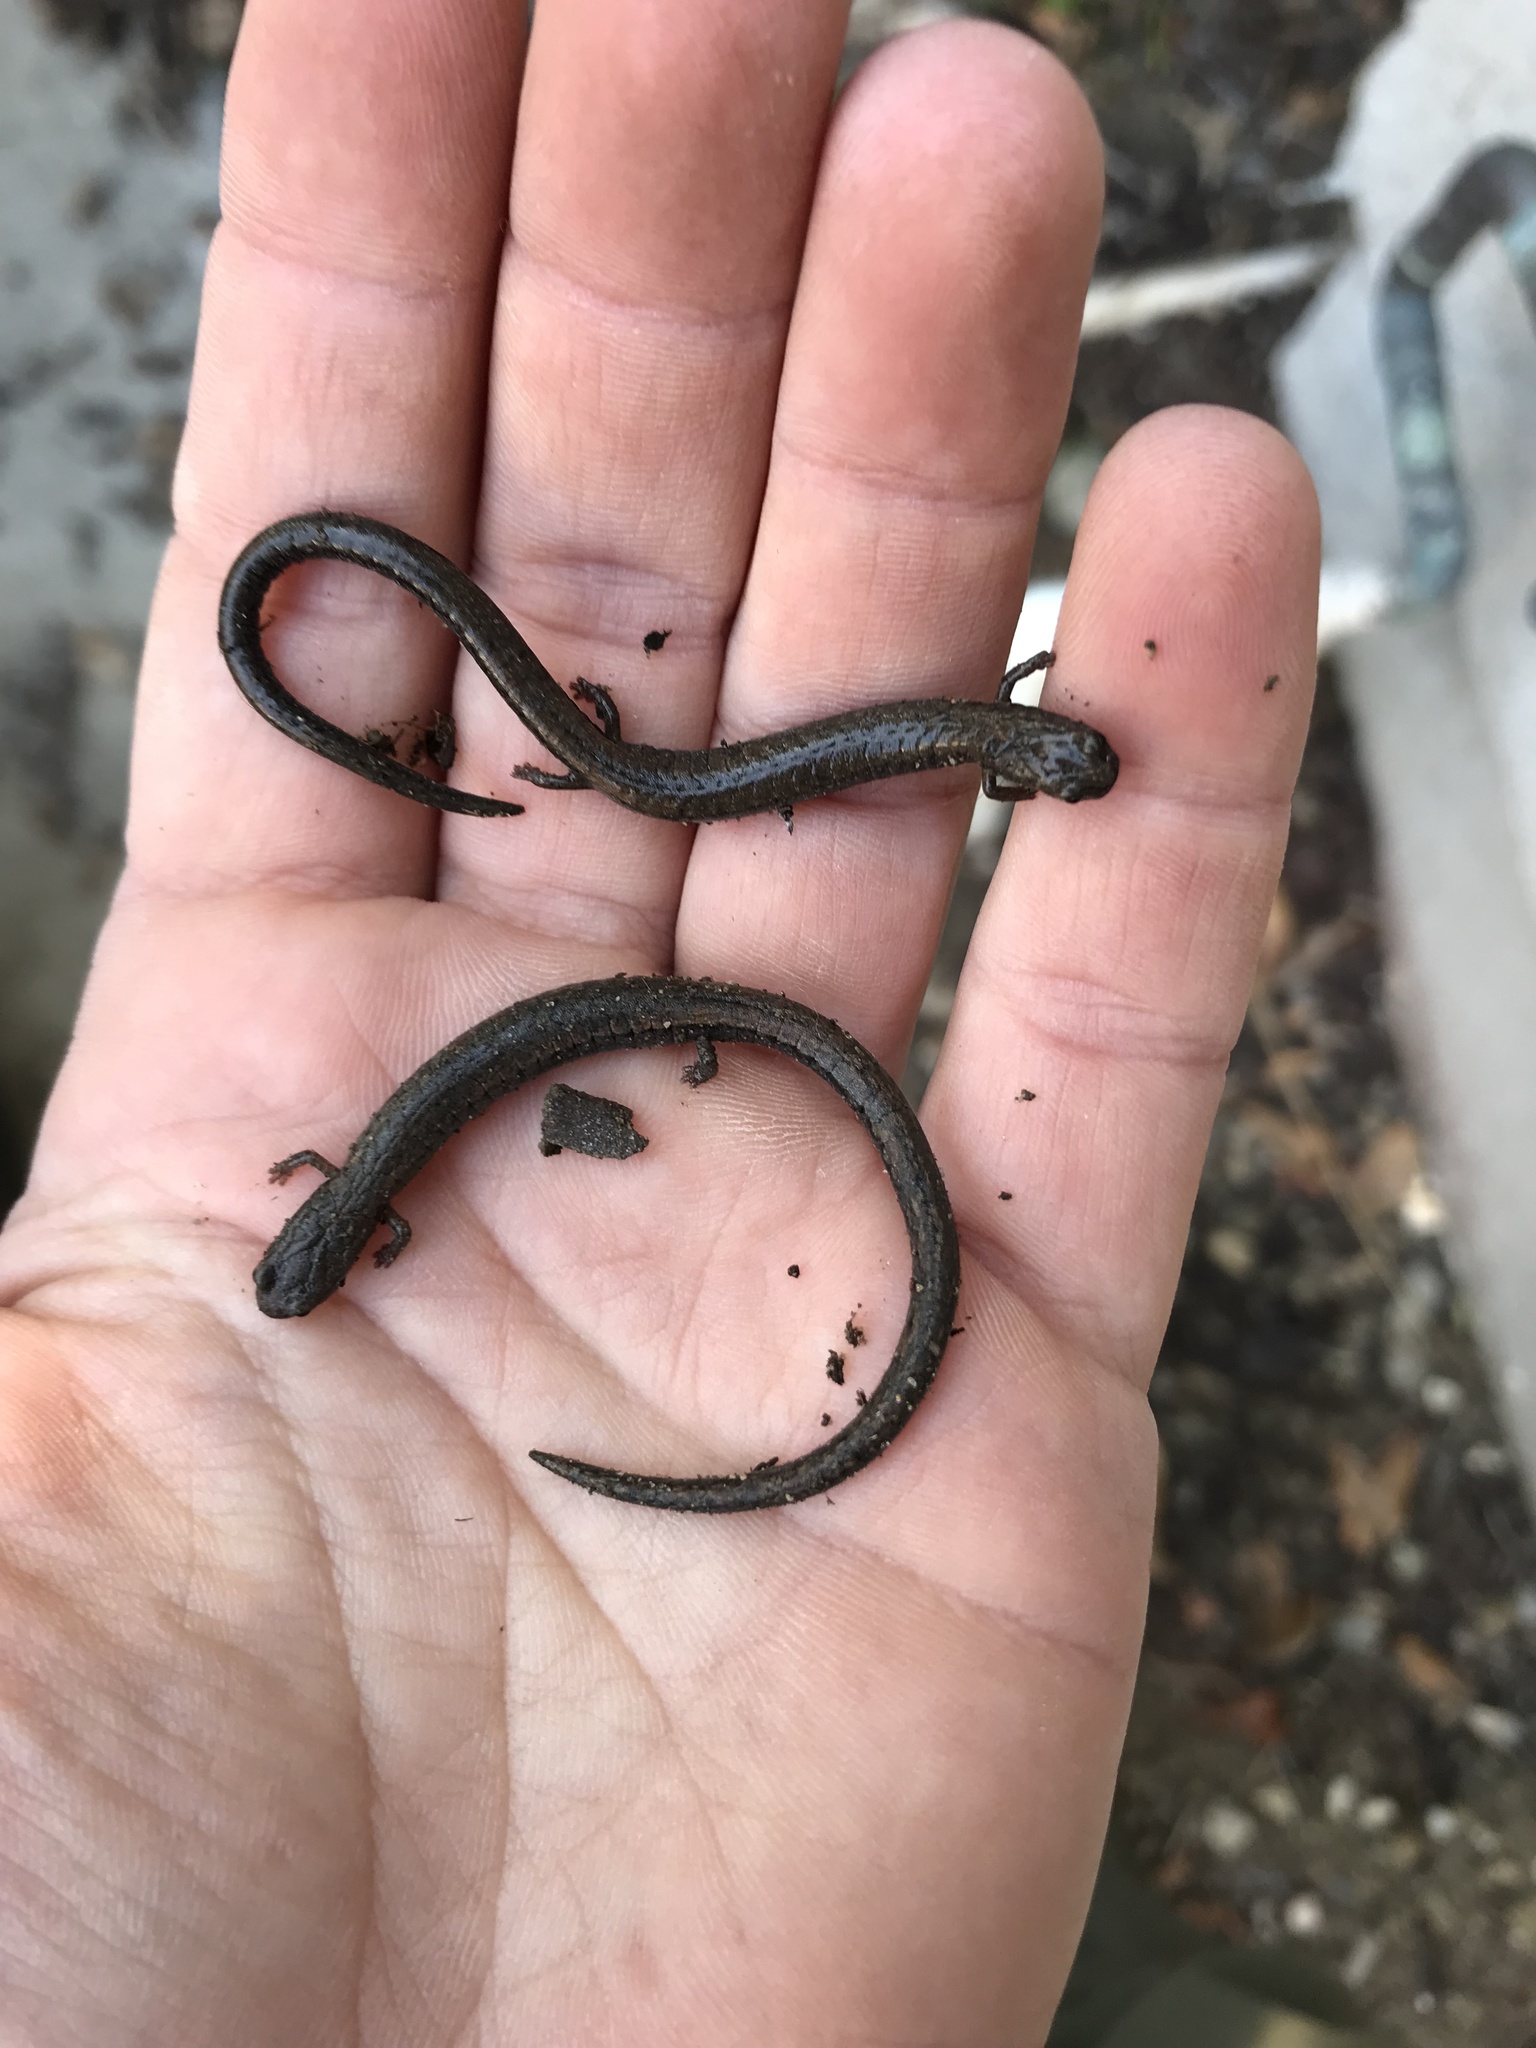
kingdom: Animalia
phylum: Chordata
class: Amphibia
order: Caudata
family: Plethodontidae
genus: Batrachoseps
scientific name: Batrachoseps nigriventris
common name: Black-bellied slender salamander
